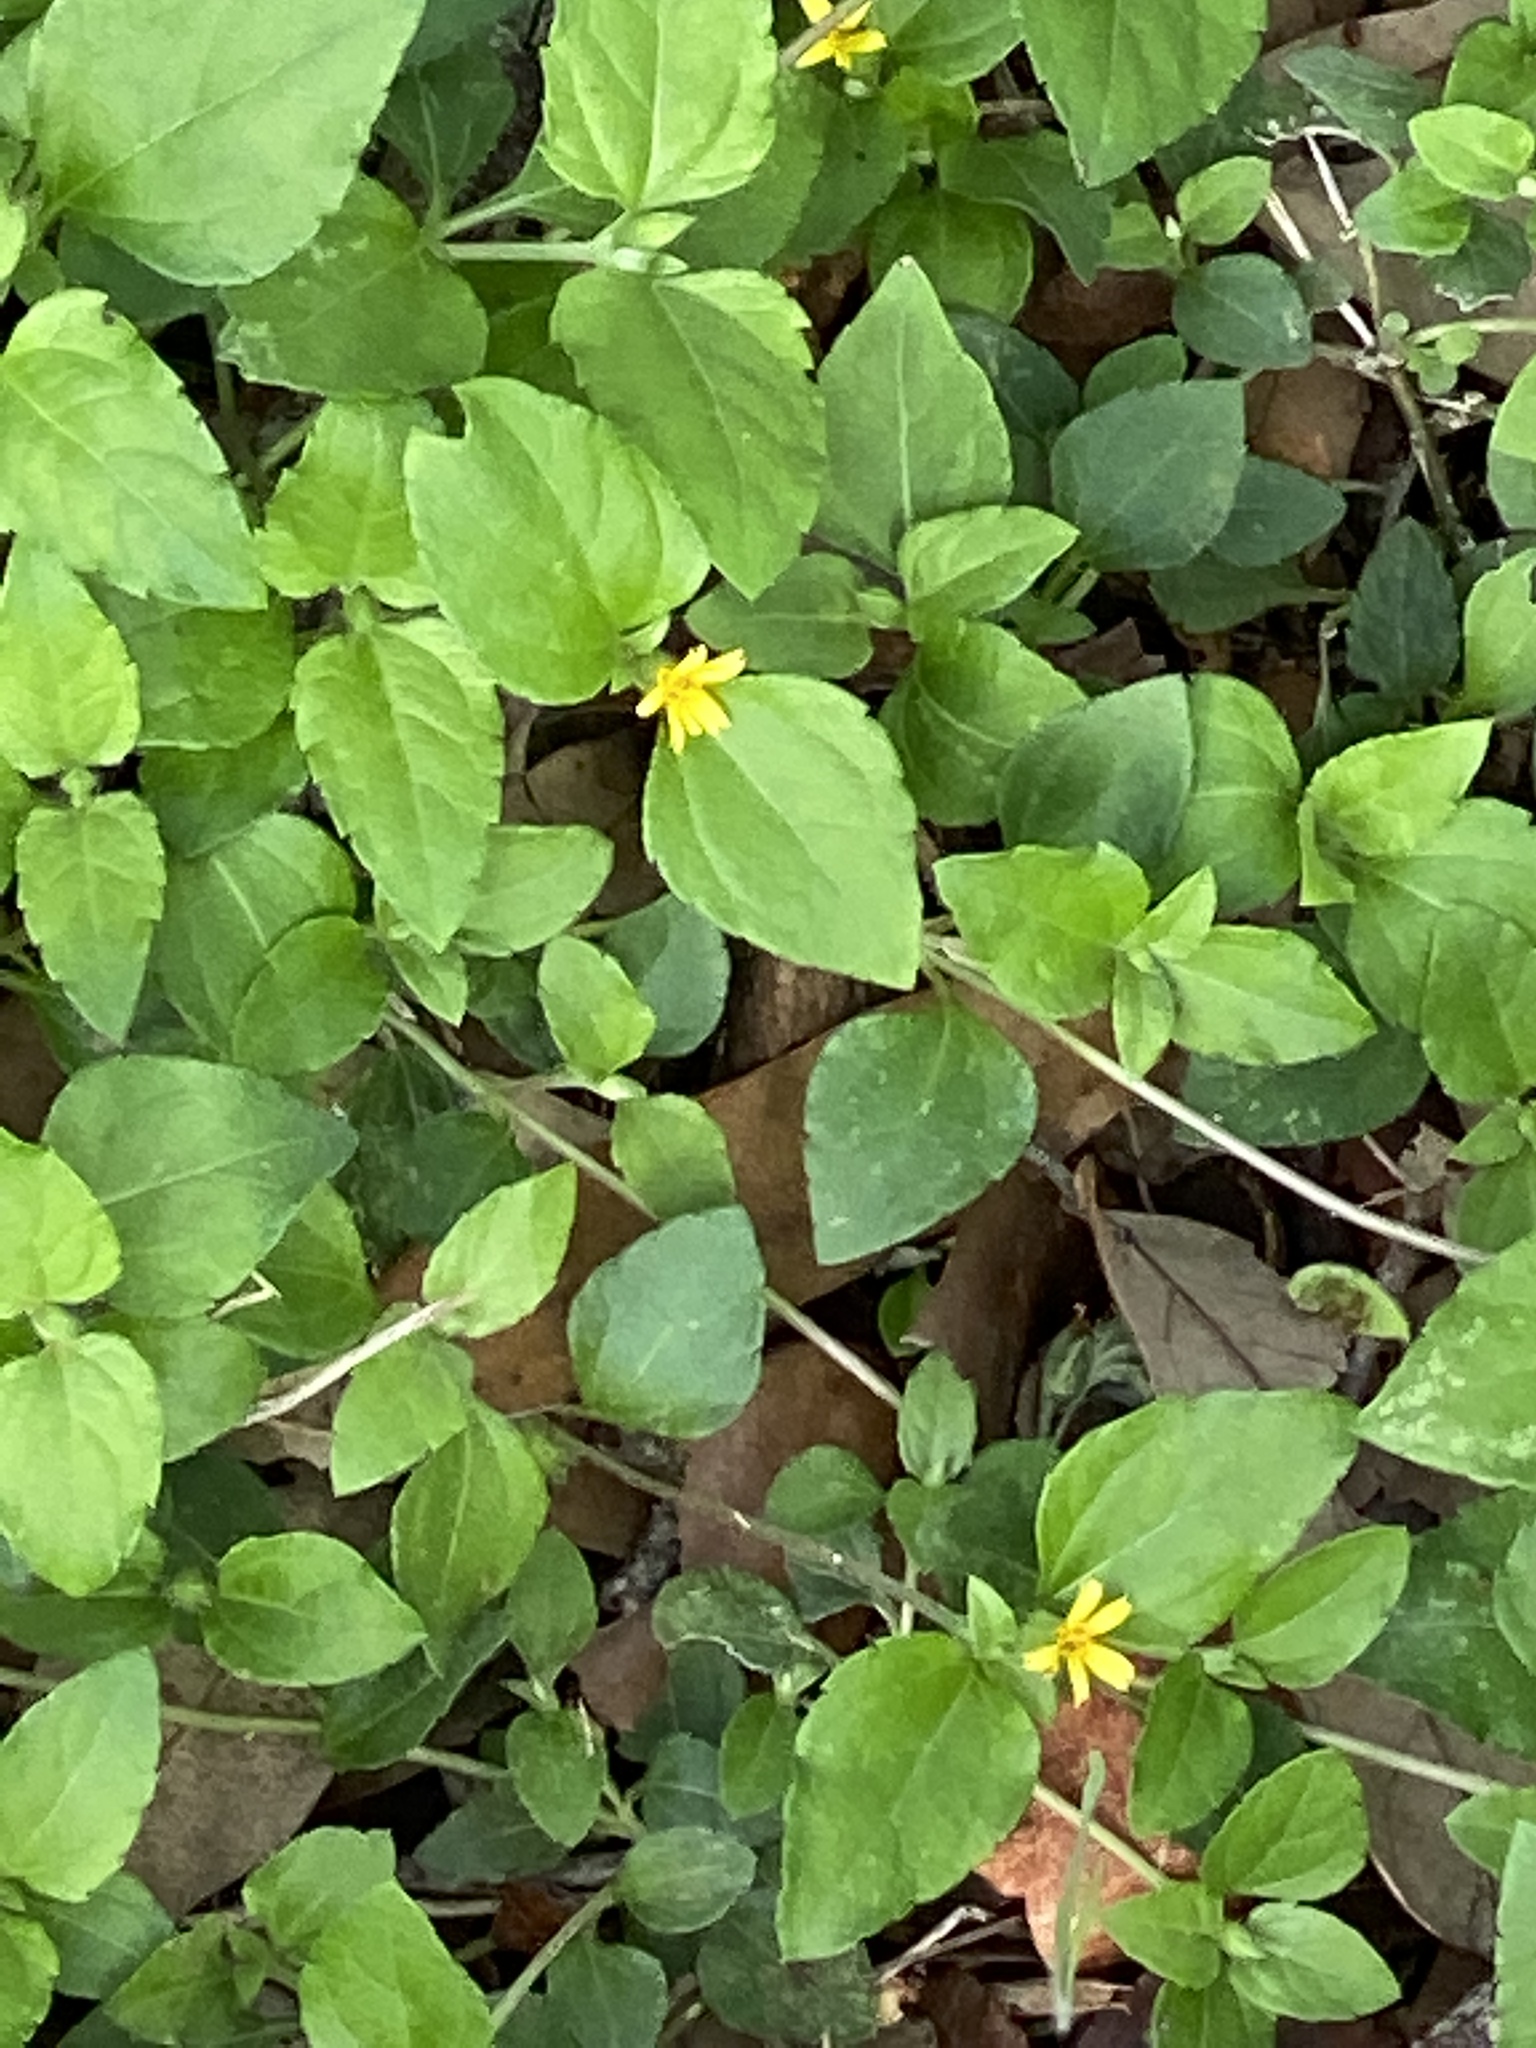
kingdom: Plantae
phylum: Tracheophyta
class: Magnoliopsida
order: Asterales
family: Asteraceae
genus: Calyptocarpus
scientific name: Calyptocarpus vialis
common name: Straggler daisy
